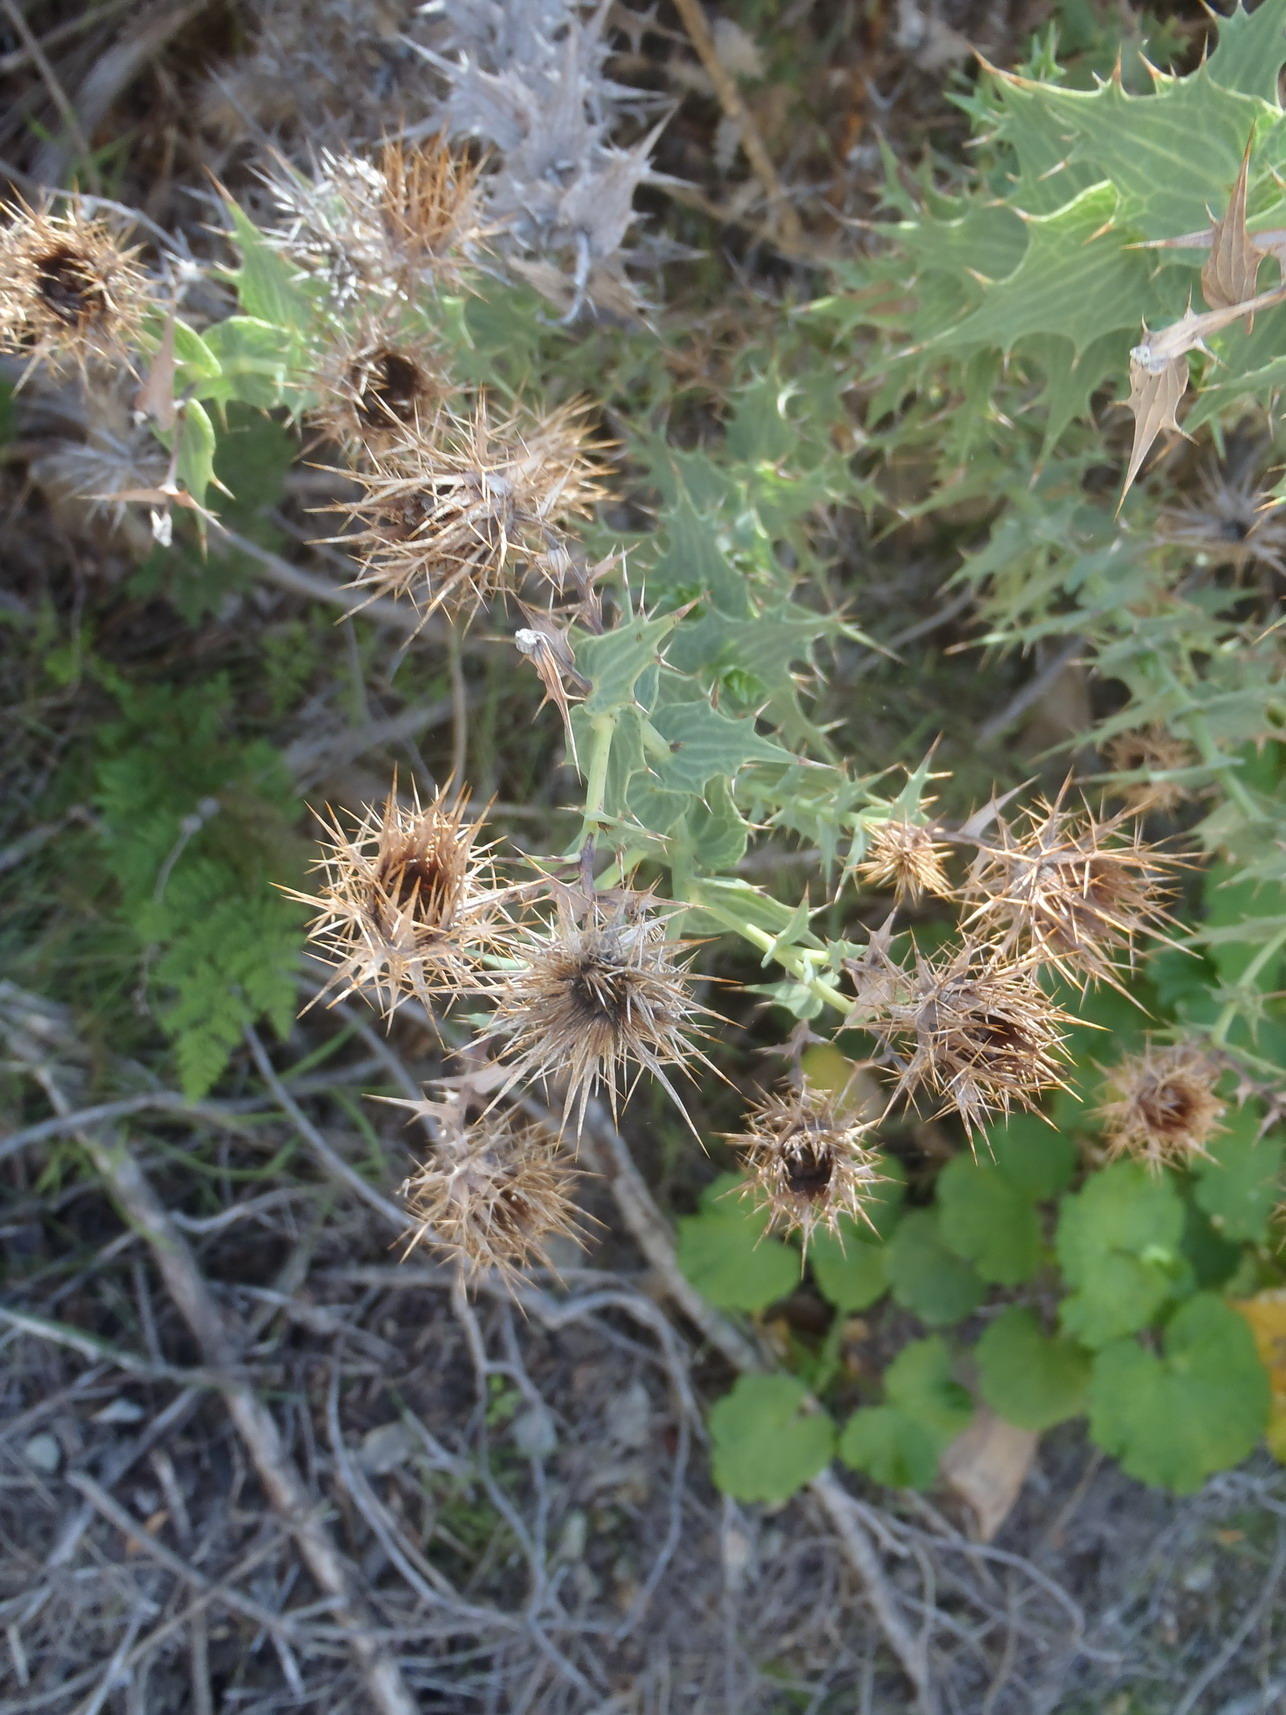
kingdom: Plantae
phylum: Tracheophyta
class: Magnoliopsida
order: Asterales
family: Asteraceae
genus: Berkheya
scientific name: Berkheya cruciata
